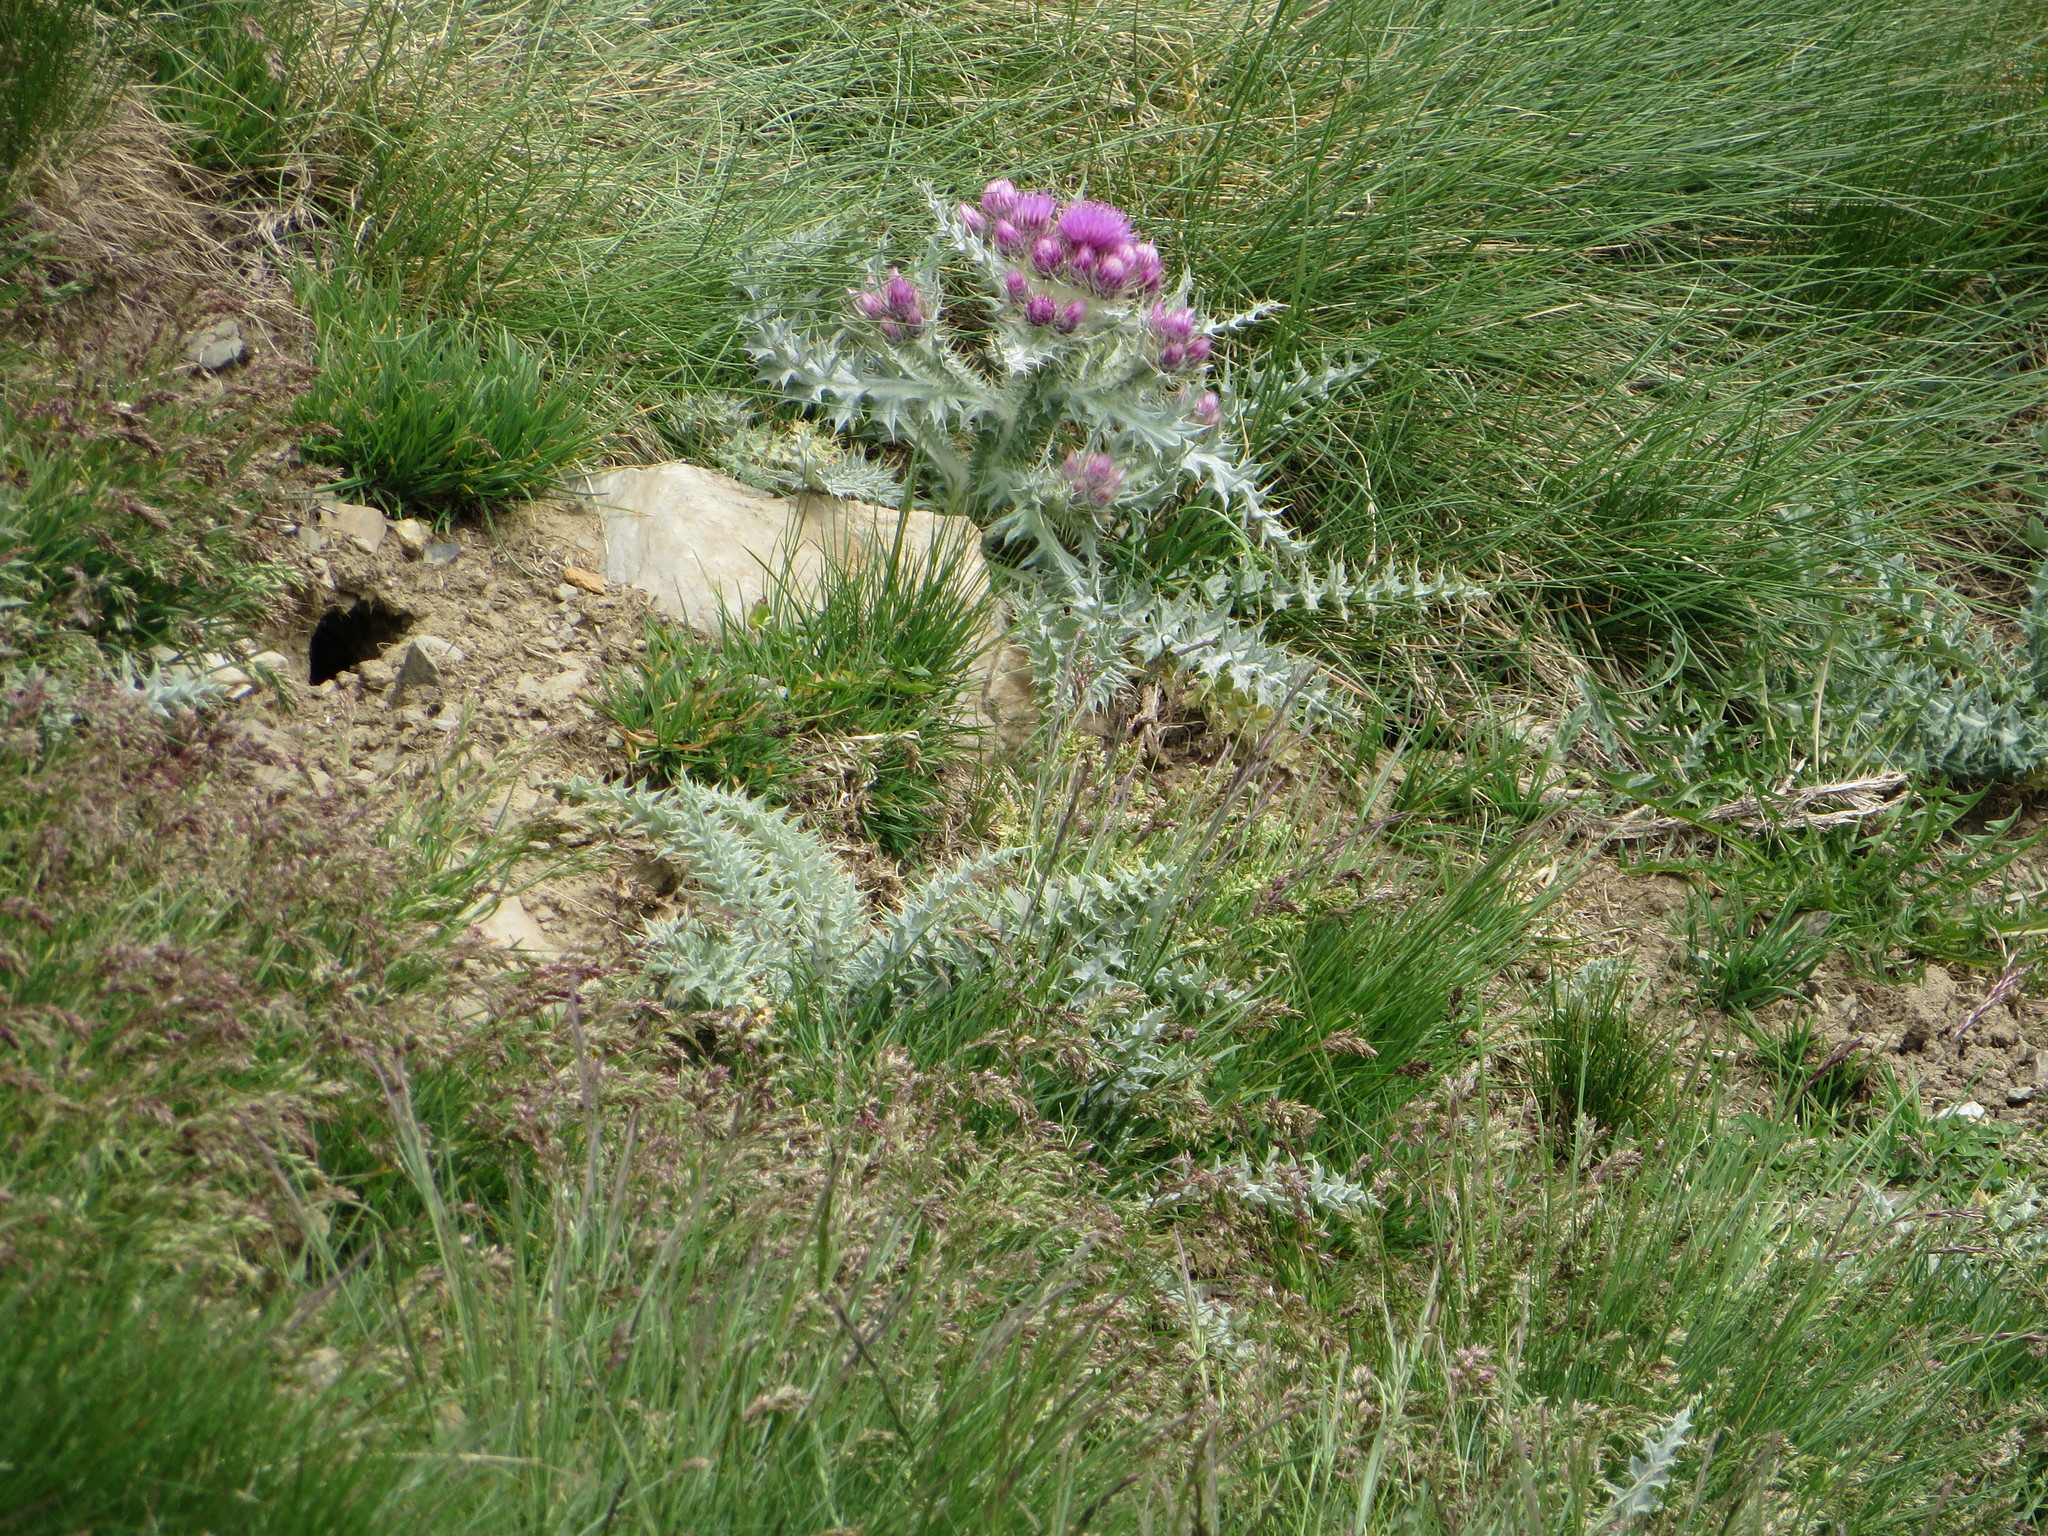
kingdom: Plantae
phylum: Tracheophyta
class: Magnoliopsida
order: Asterales
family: Asteraceae
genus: Carduus
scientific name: Carduus carlinoides
